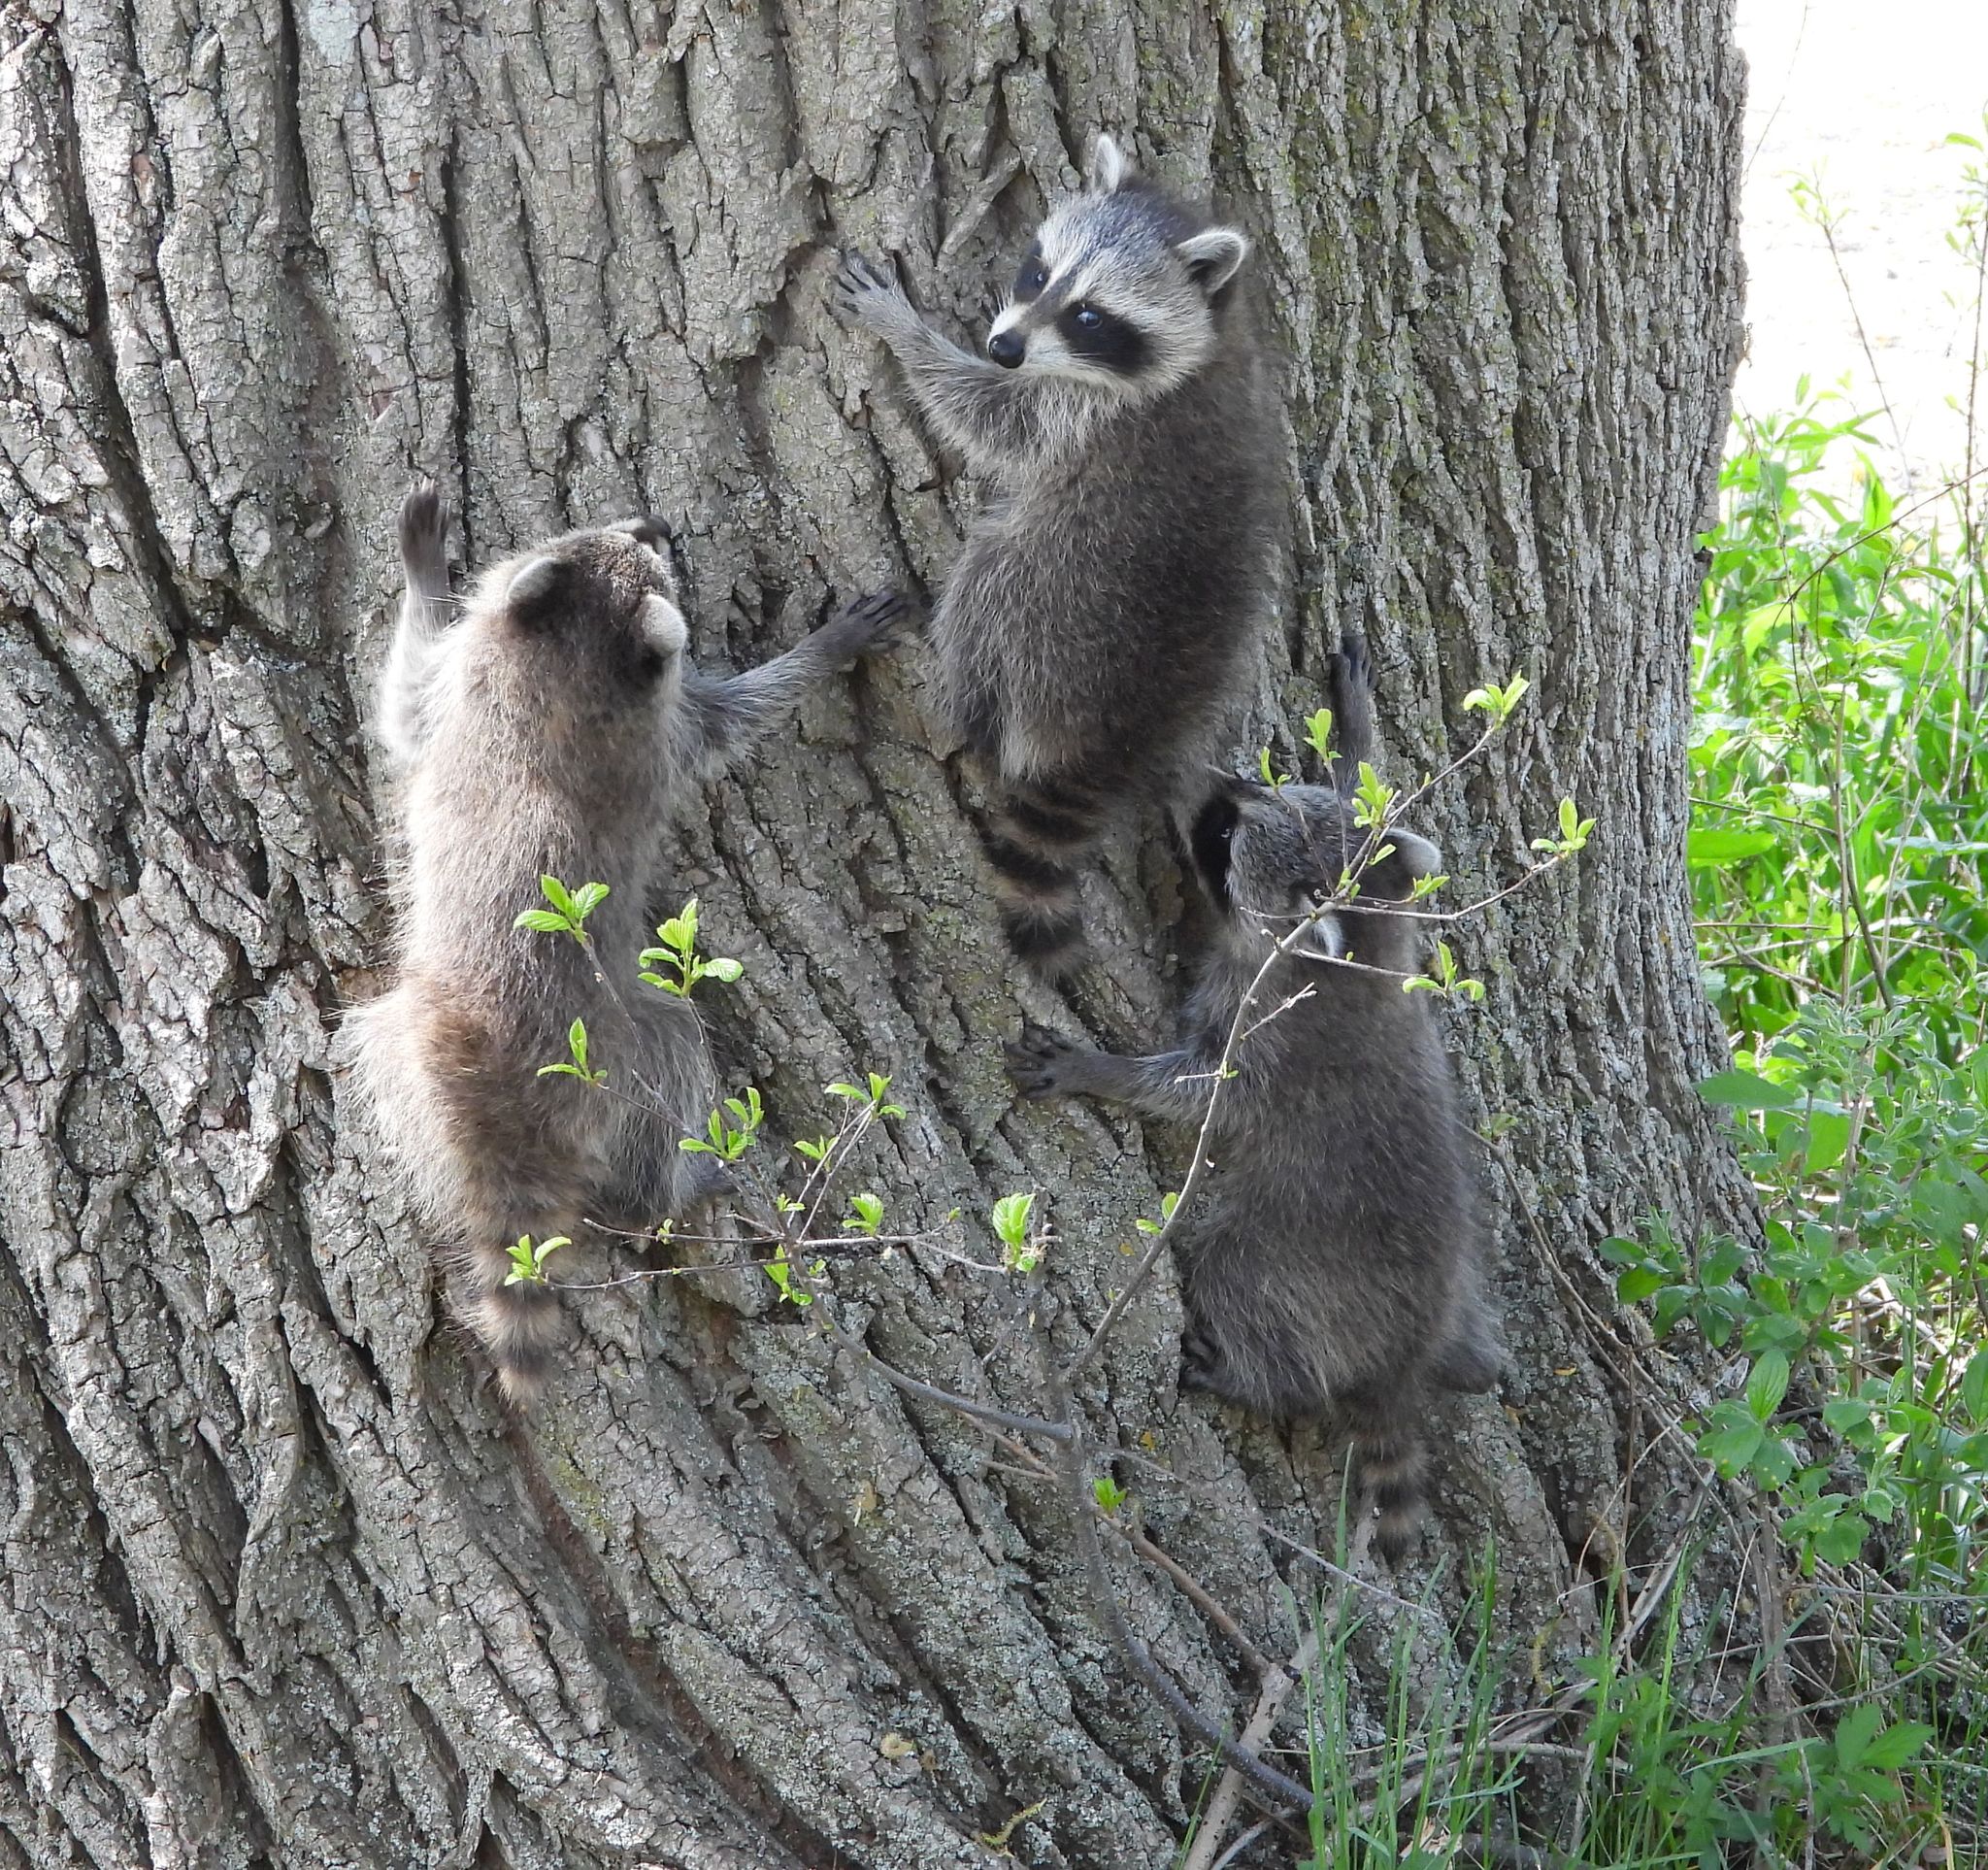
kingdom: Animalia
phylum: Chordata
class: Mammalia
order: Carnivora
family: Procyonidae
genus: Procyon
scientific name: Procyon lotor
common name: Raccoon
